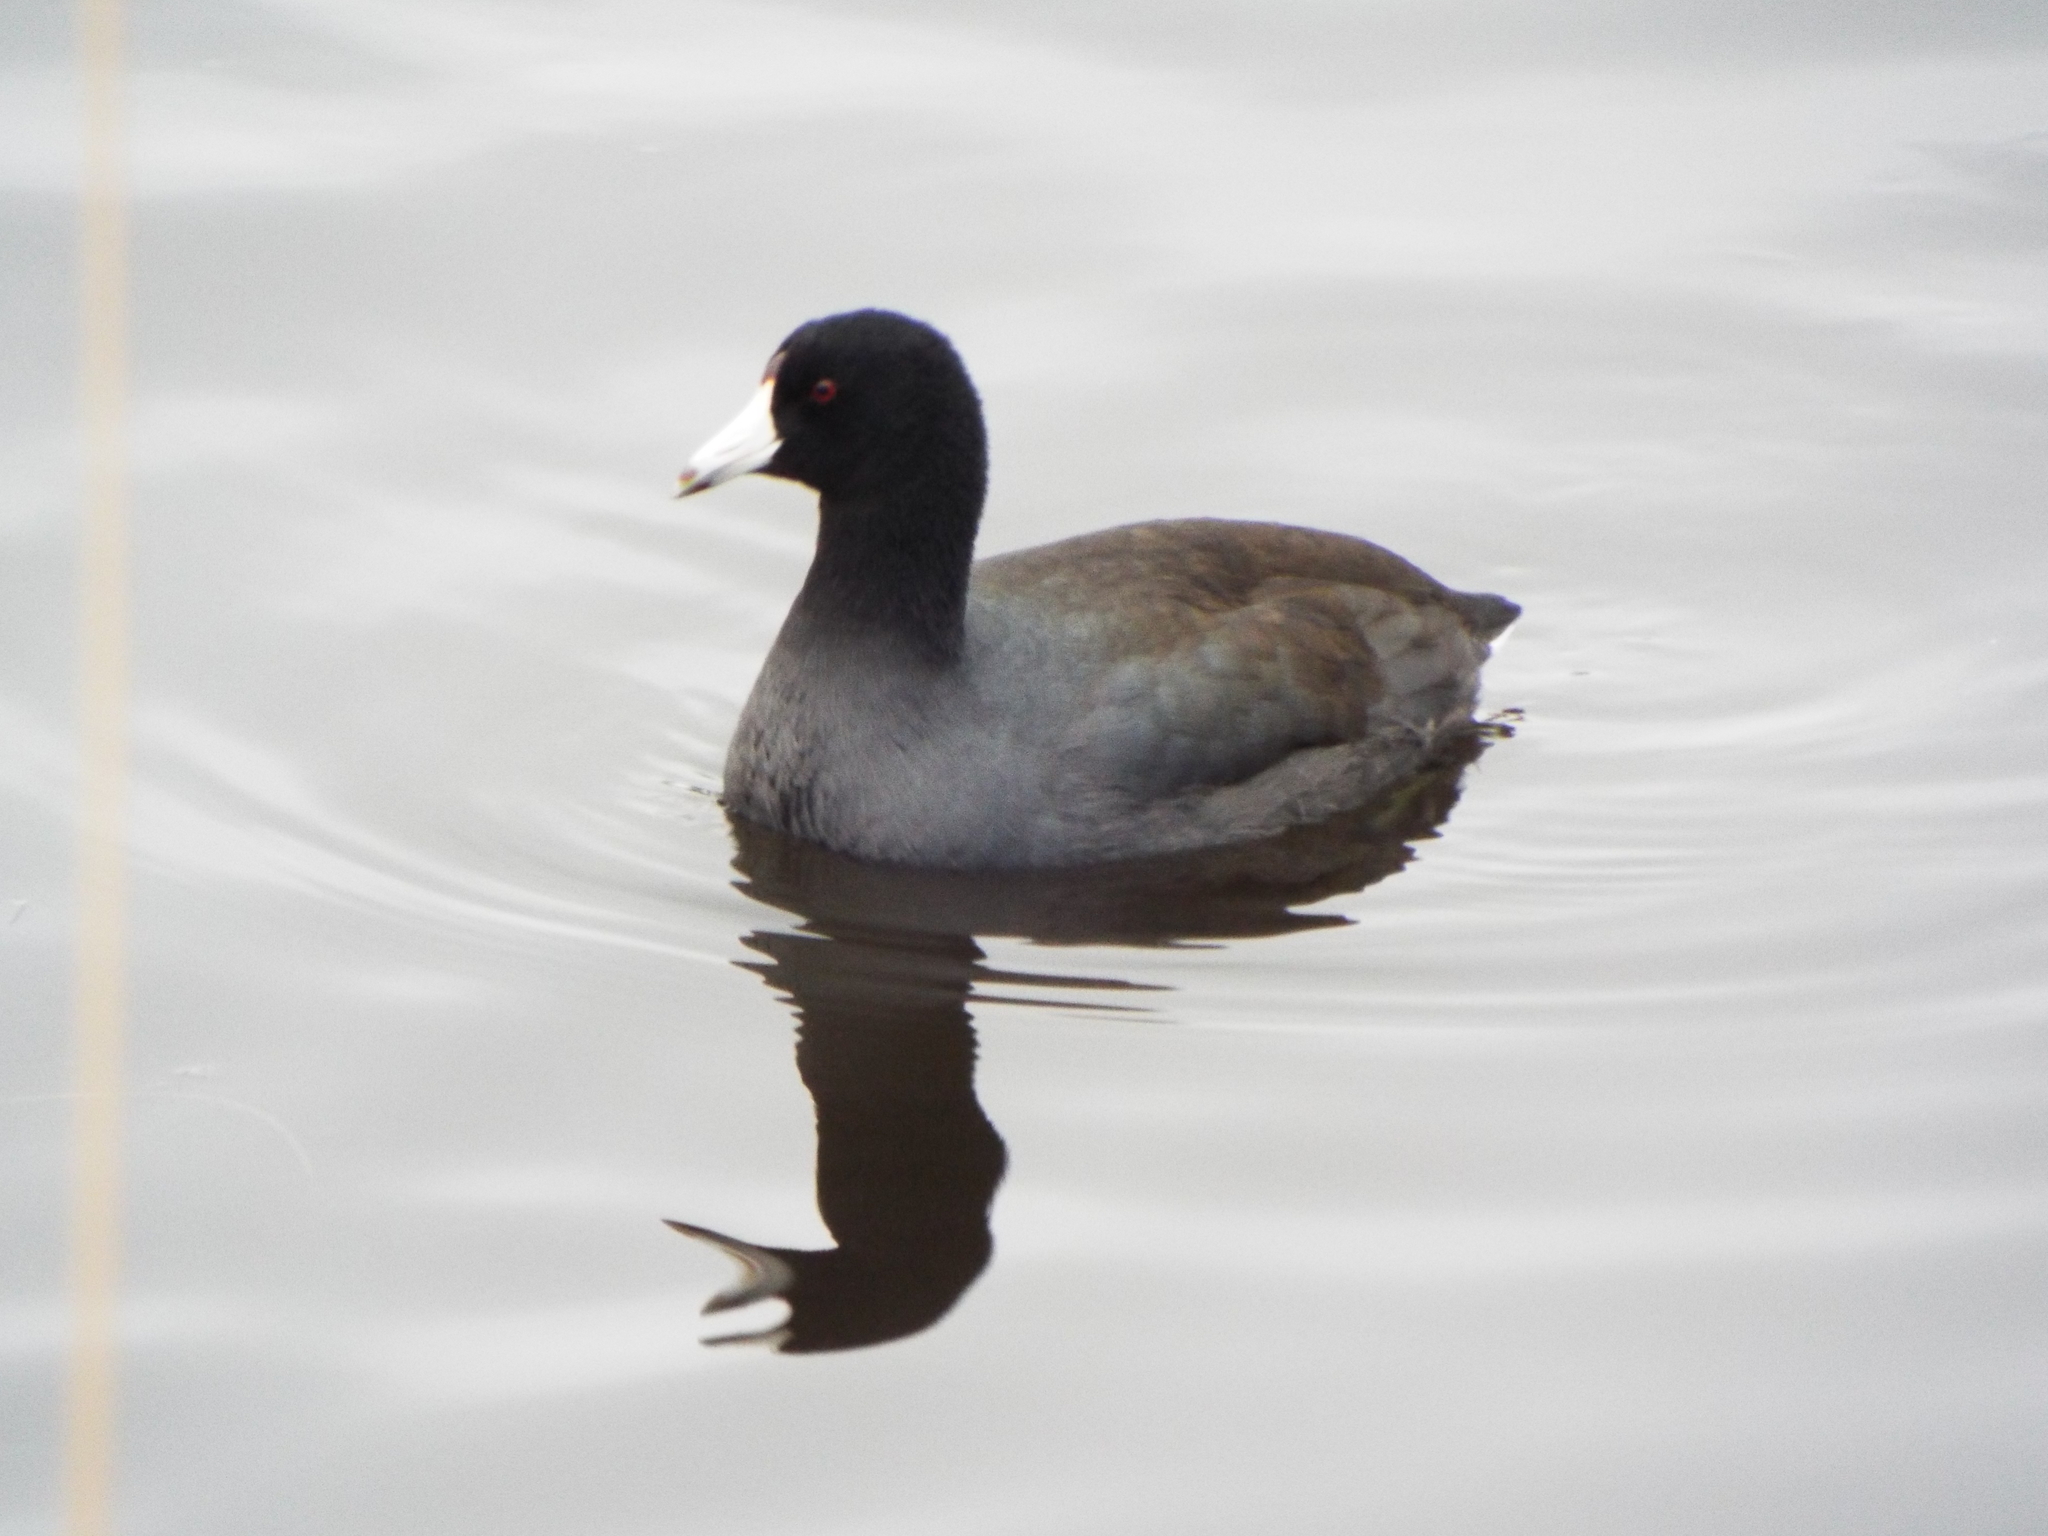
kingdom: Animalia
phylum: Chordata
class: Aves
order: Gruiformes
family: Rallidae
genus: Fulica
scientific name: Fulica americana
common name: American coot
